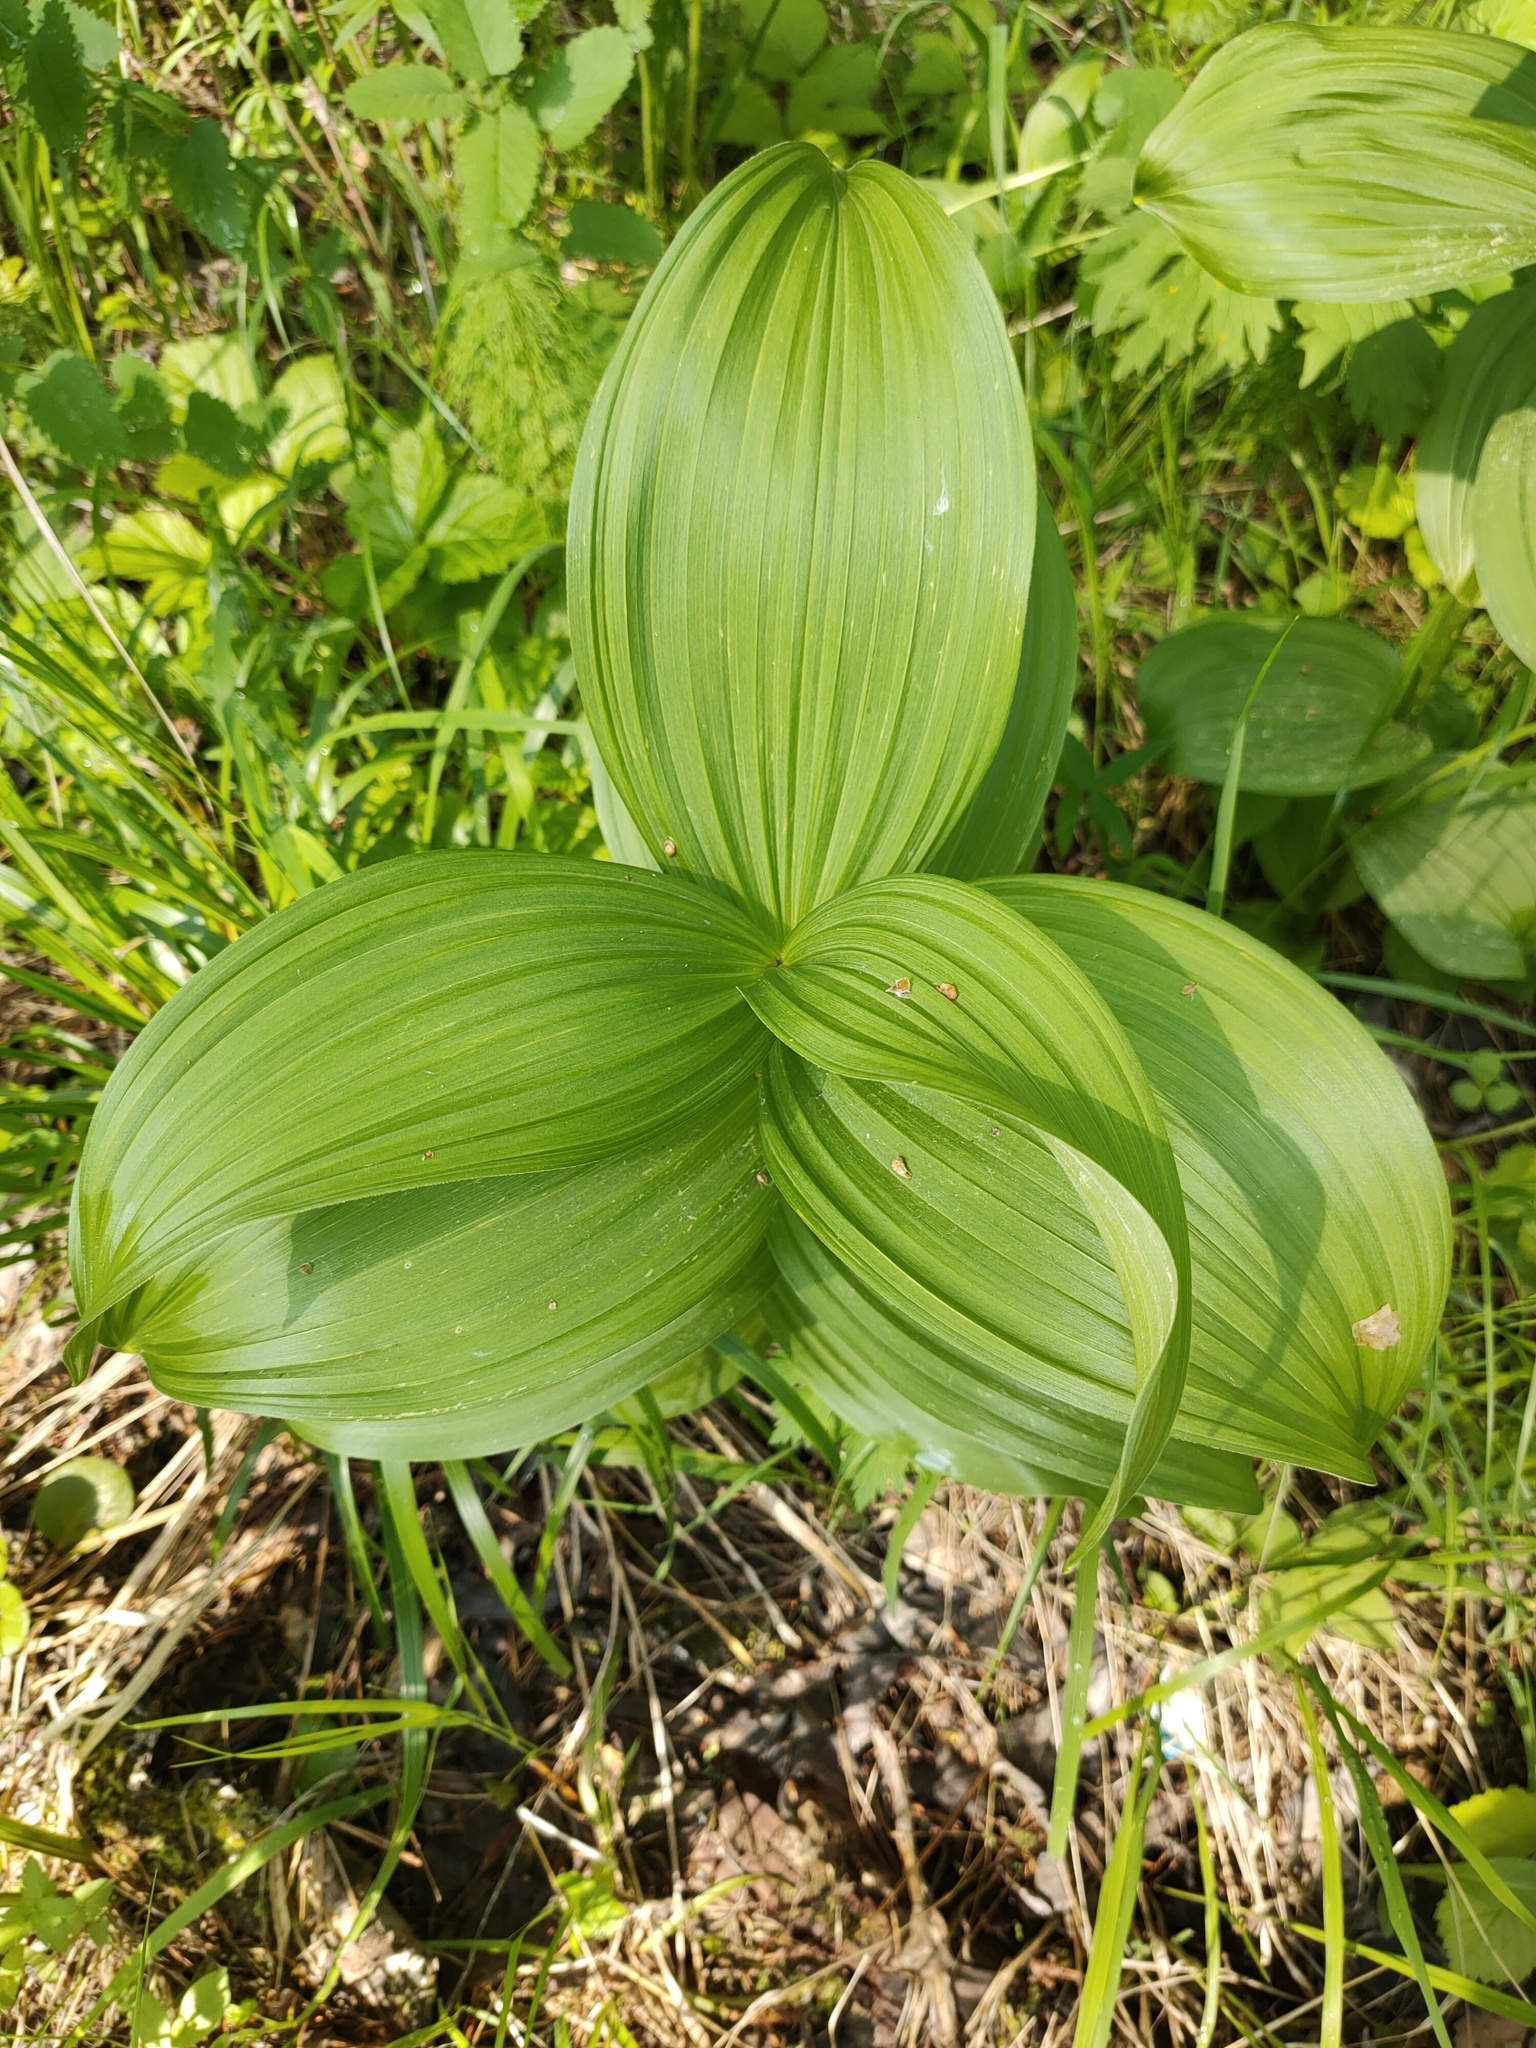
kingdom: Plantae
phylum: Tracheophyta
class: Liliopsida
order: Liliales
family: Melanthiaceae
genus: Veratrum
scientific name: Veratrum lobelianum
